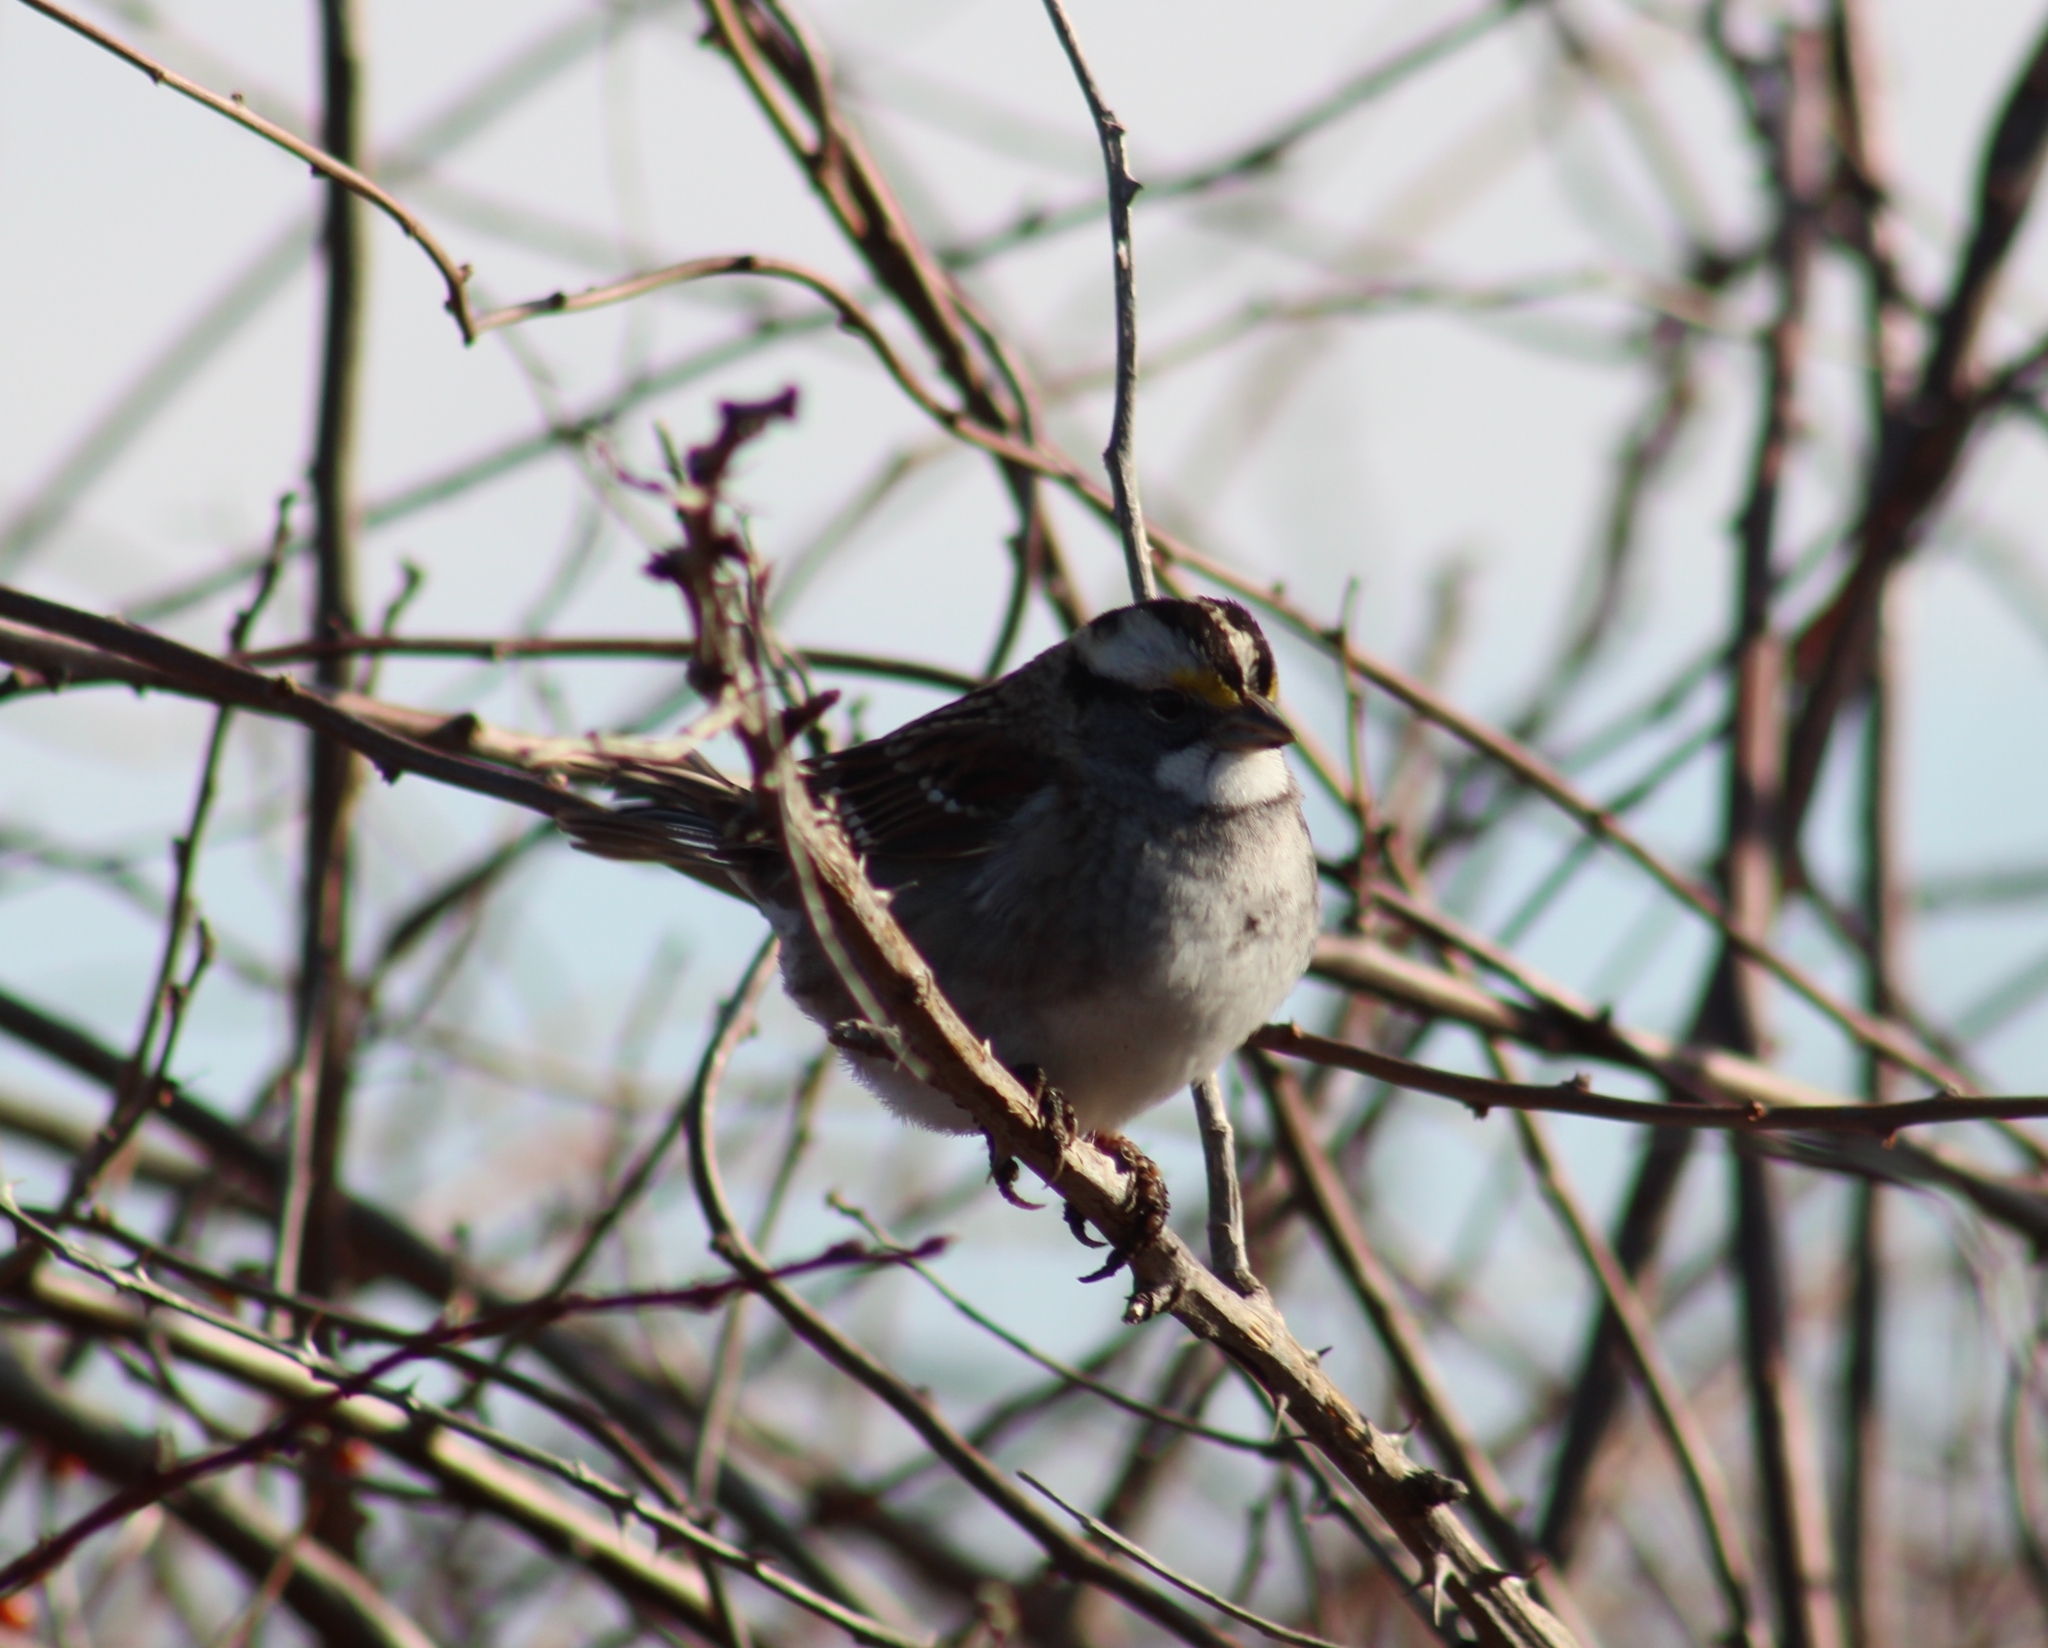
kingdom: Animalia
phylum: Chordata
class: Aves
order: Passeriformes
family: Passerellidae
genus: Zonotrichia
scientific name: Zonotrichia albicollis
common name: White-throated sparrow
